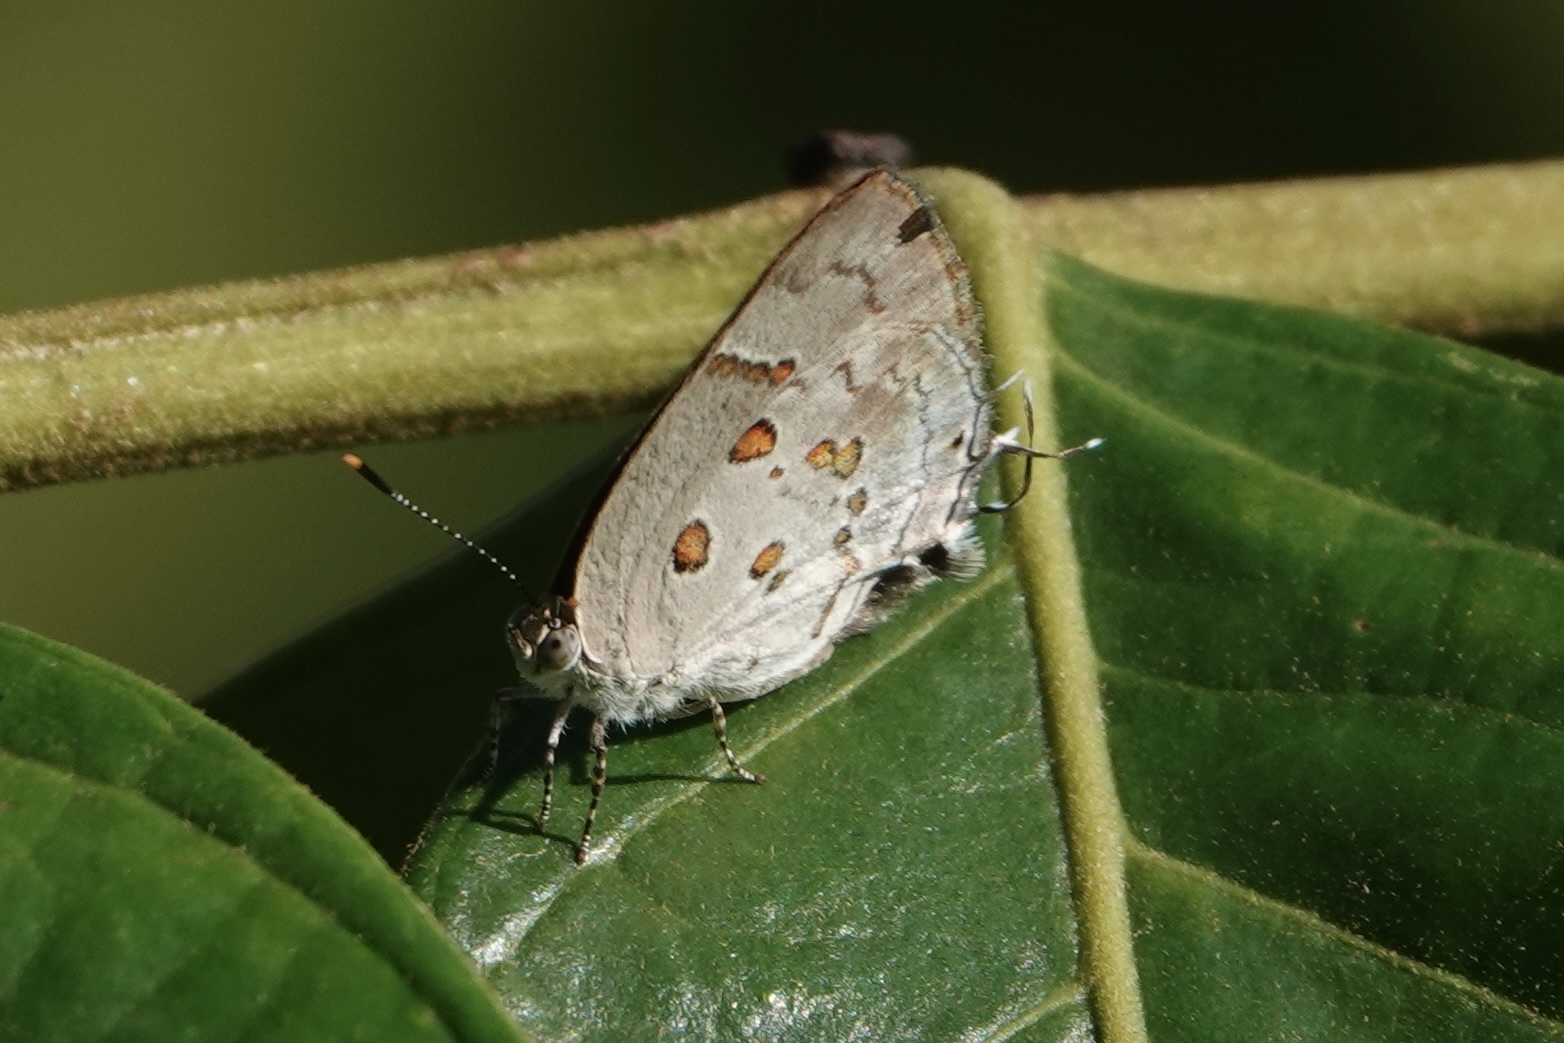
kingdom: Animalia
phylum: Arthropoda
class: Insecta
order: Lepidoptera
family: Lycaenidae
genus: Tmolus
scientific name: Tmolus echion
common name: Red-spotted hairstreak
